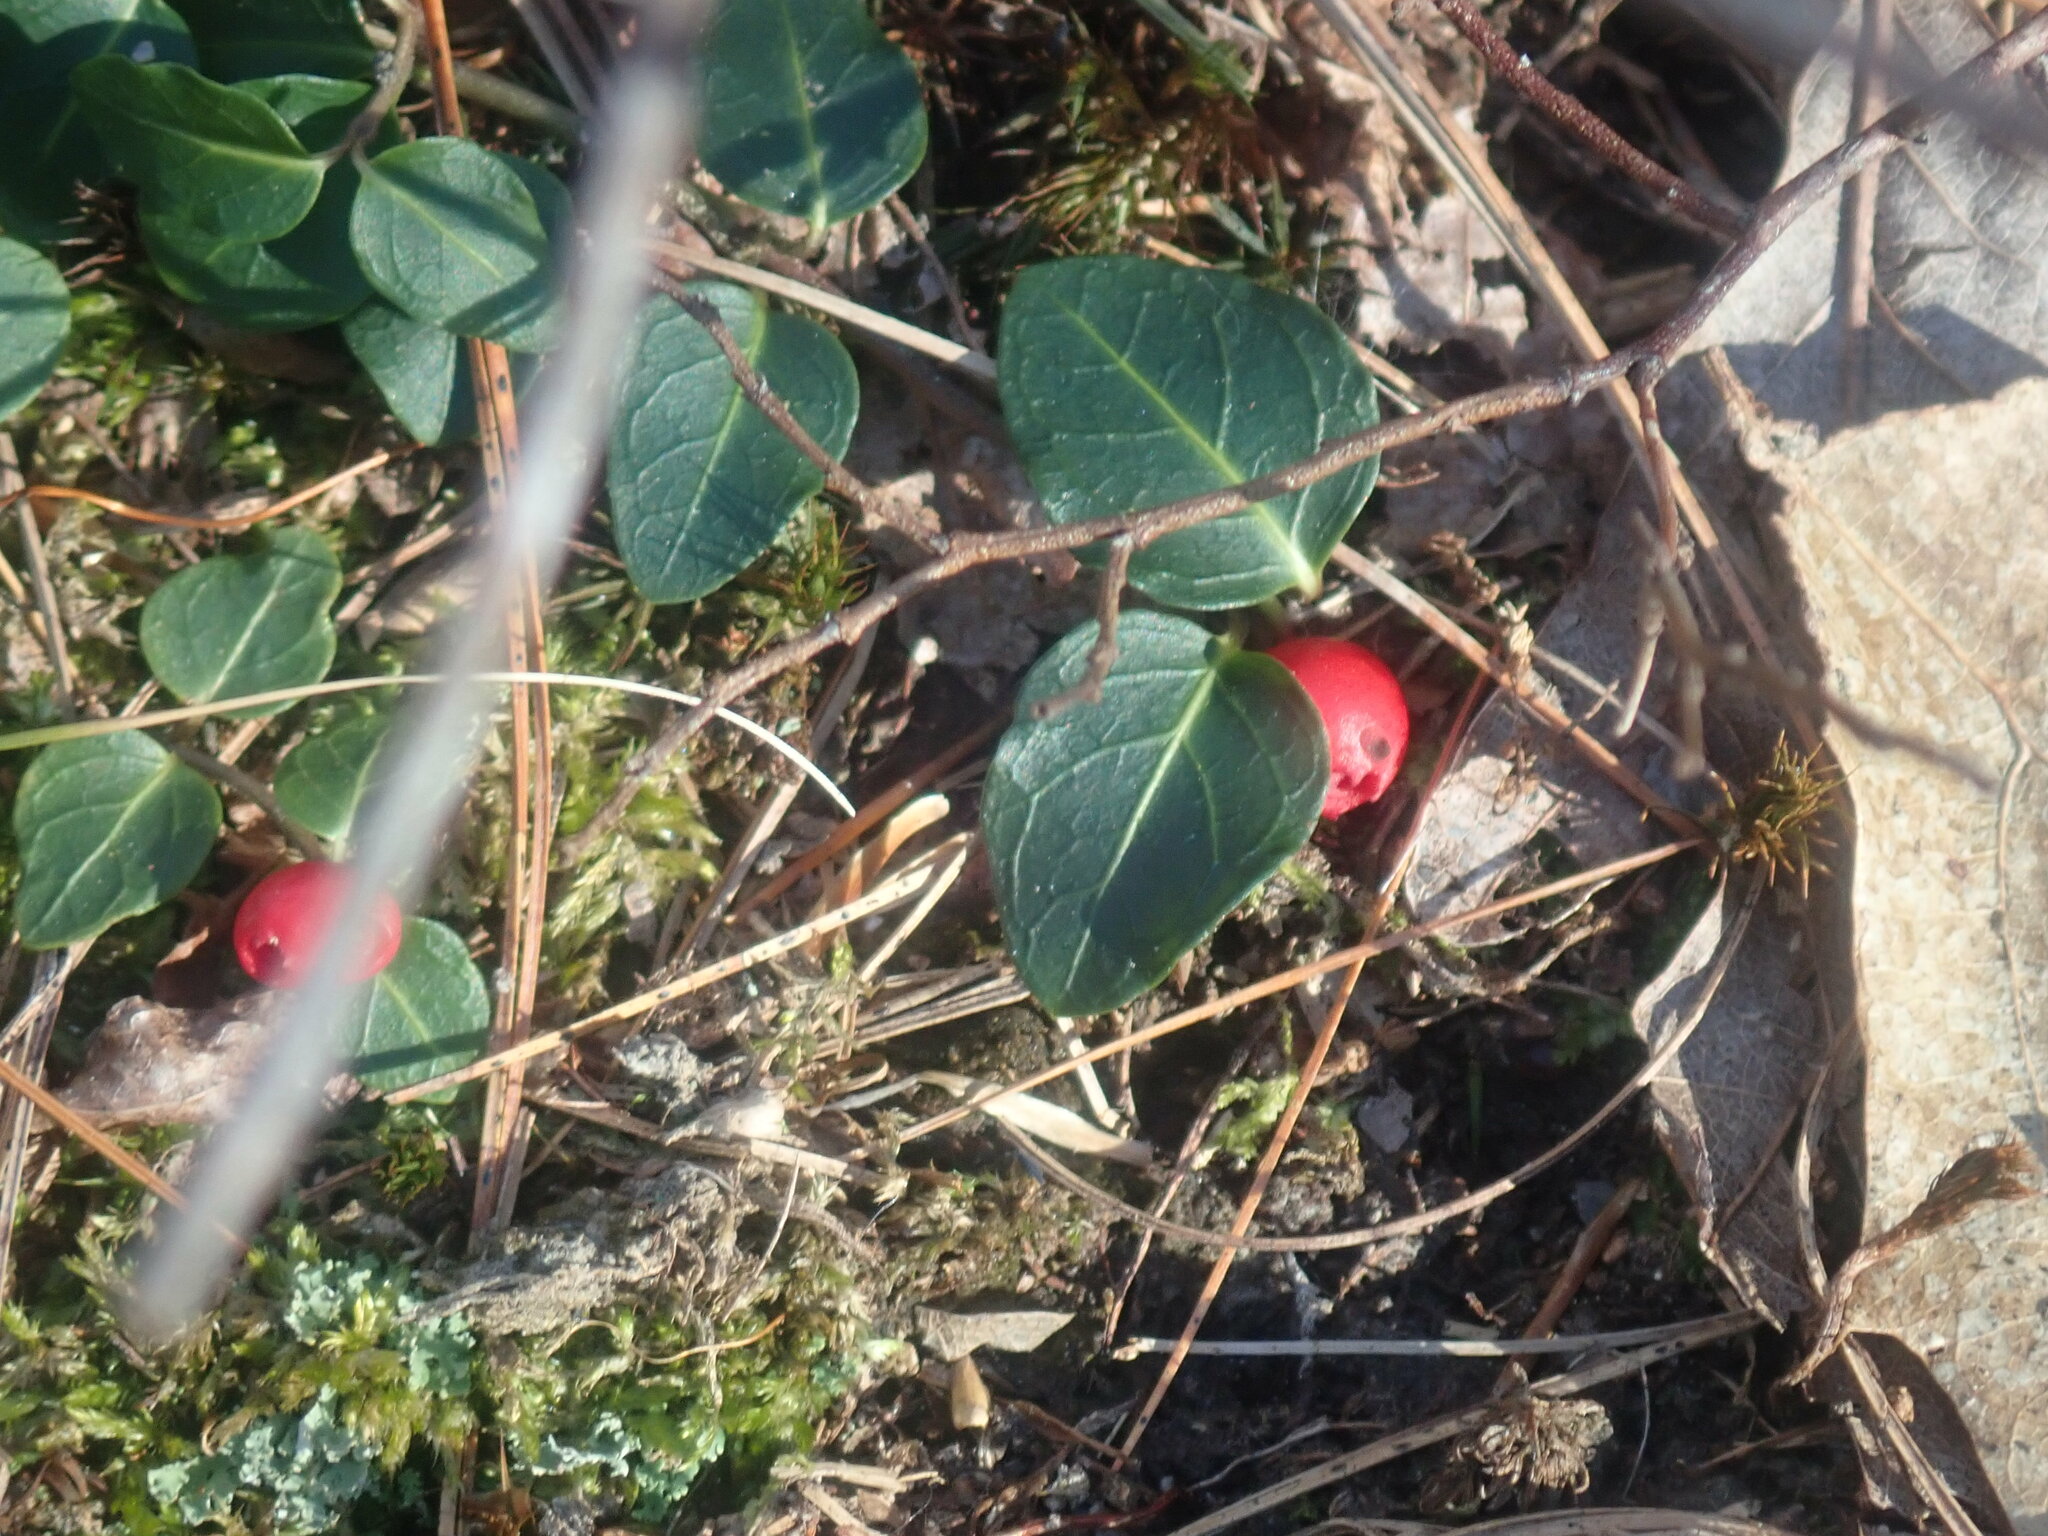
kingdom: Plantae
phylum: Tracheophyta
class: Magnoliopsida
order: Gentianales
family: Rubiaceae
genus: Mitchella
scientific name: Mitchella repens
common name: Partridge-berry
